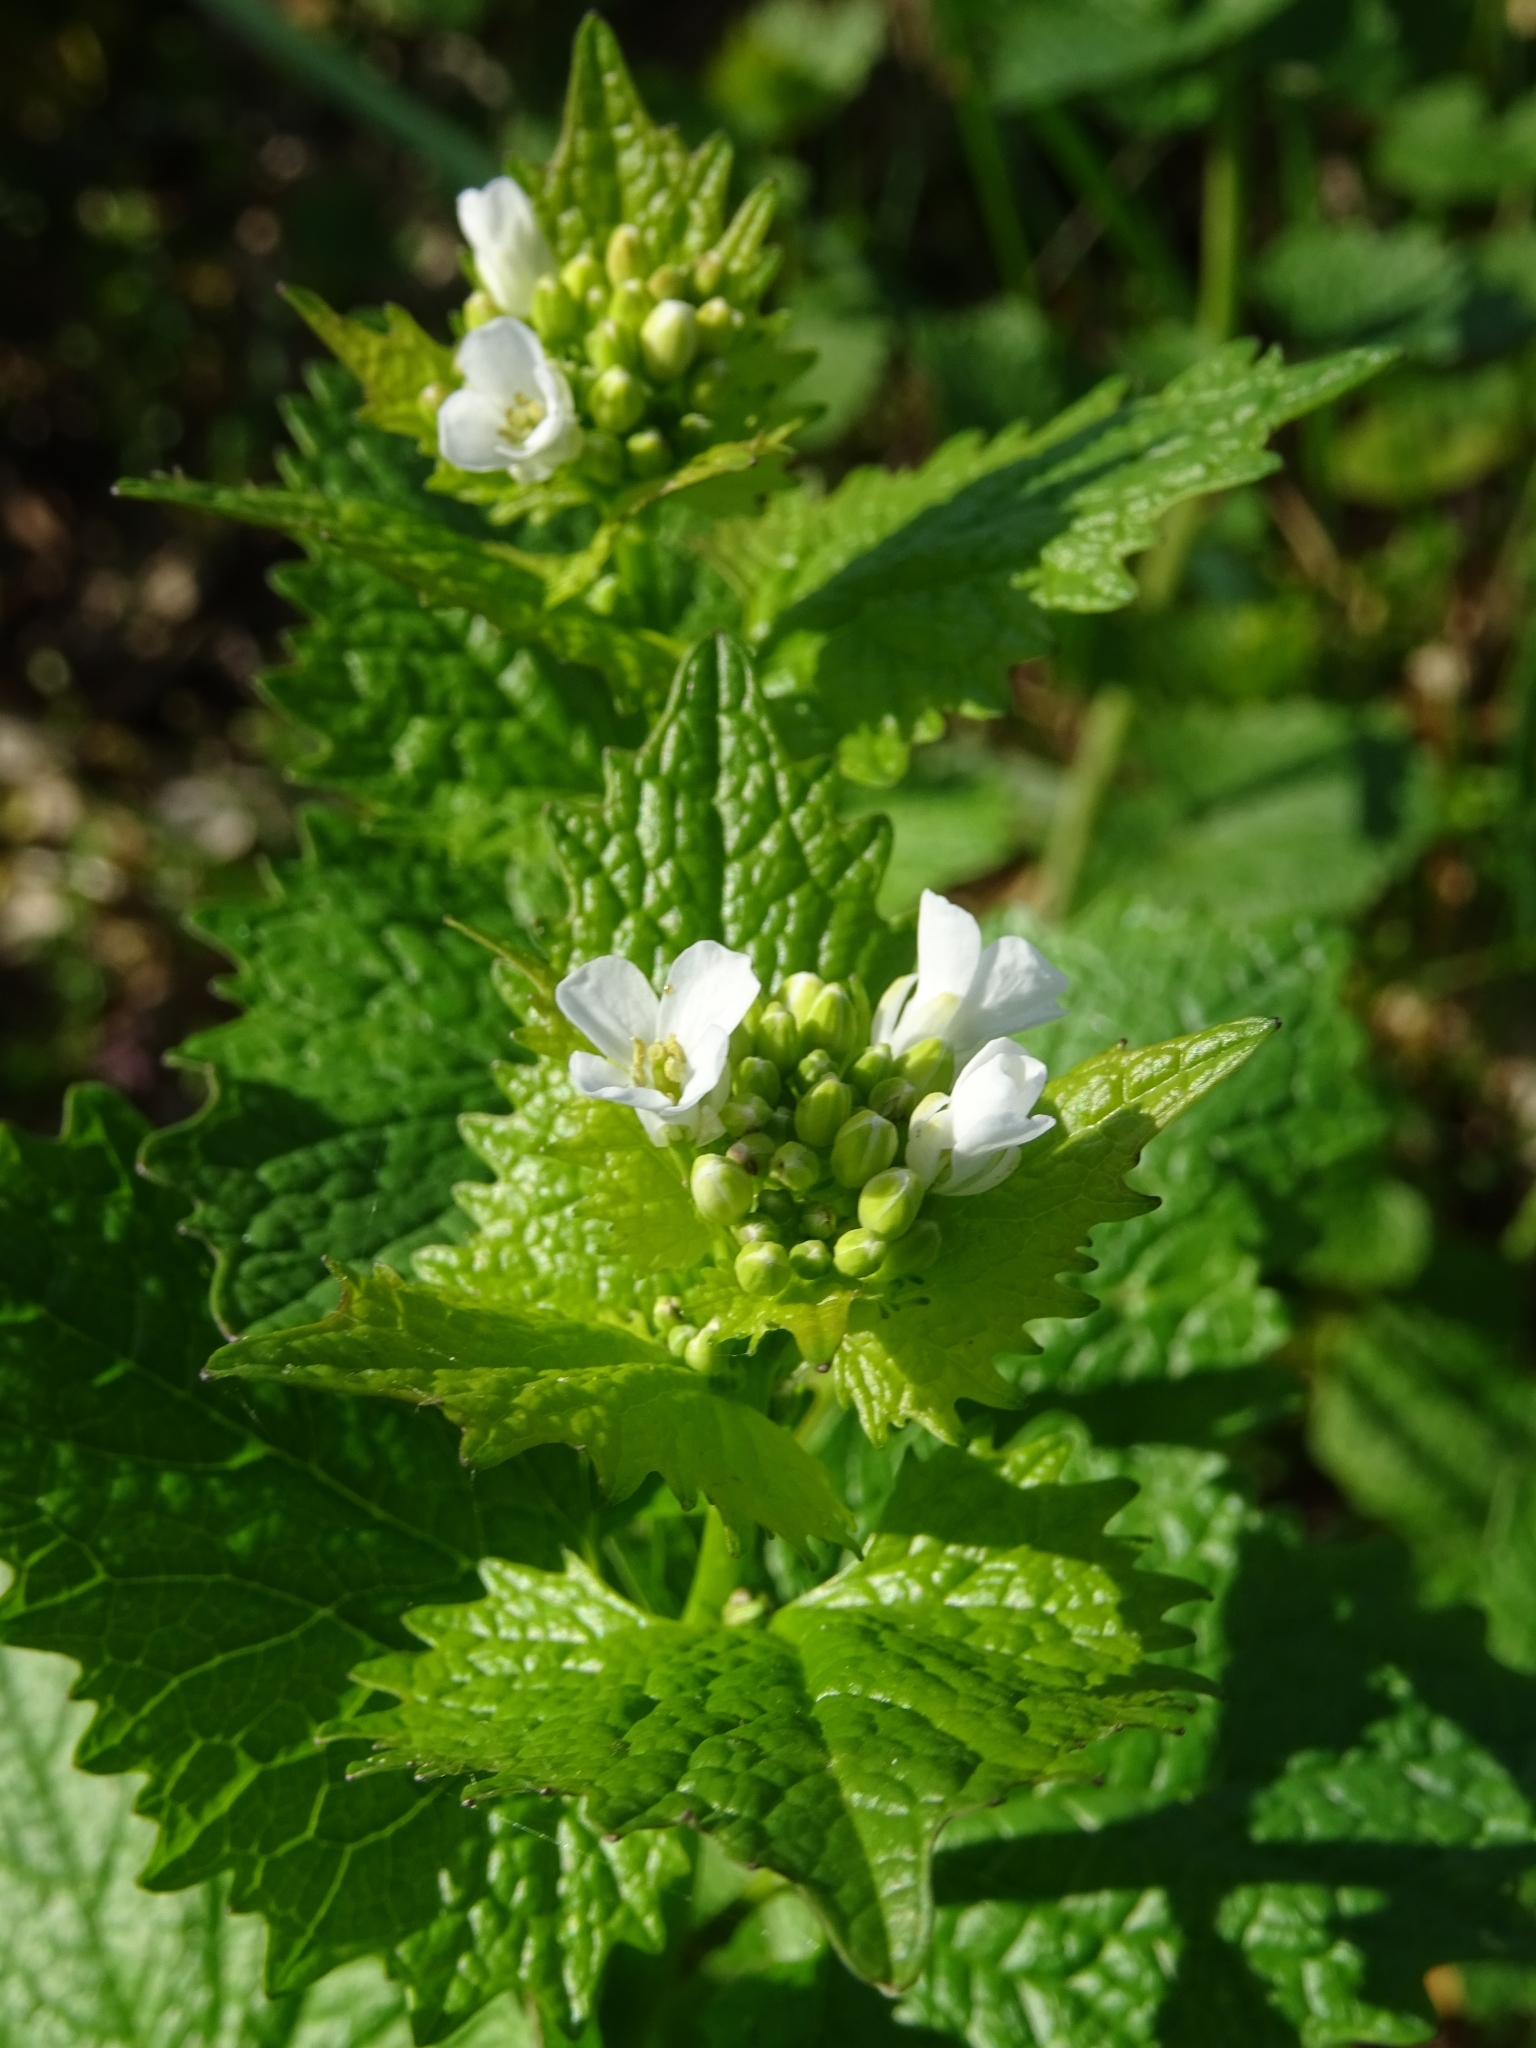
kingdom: Plantae
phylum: Tracheophyta
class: Magnoliopsida
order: Brassicales
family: Brassicaceae
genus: Alliaria
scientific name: Alliaria petiolata
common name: Garlic mustard
